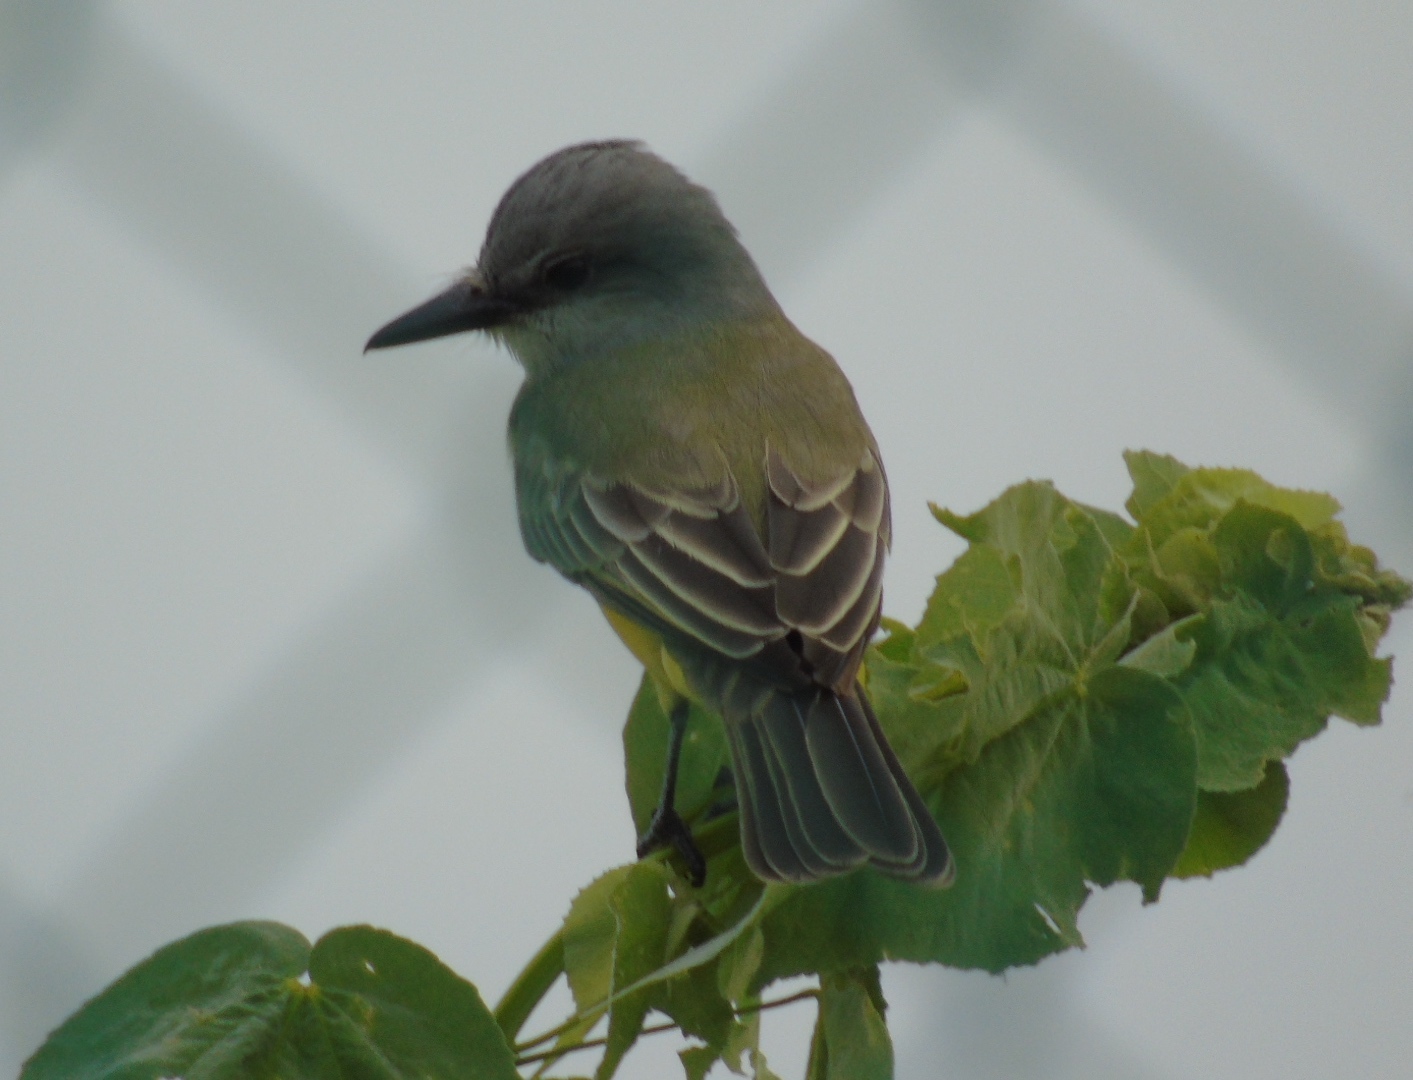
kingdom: Animalia
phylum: Chordata
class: Aves
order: Passeriformes
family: Tyrannidae
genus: Tyrannus
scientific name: Tyrannus melancholicus
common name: Tropical kingbird
